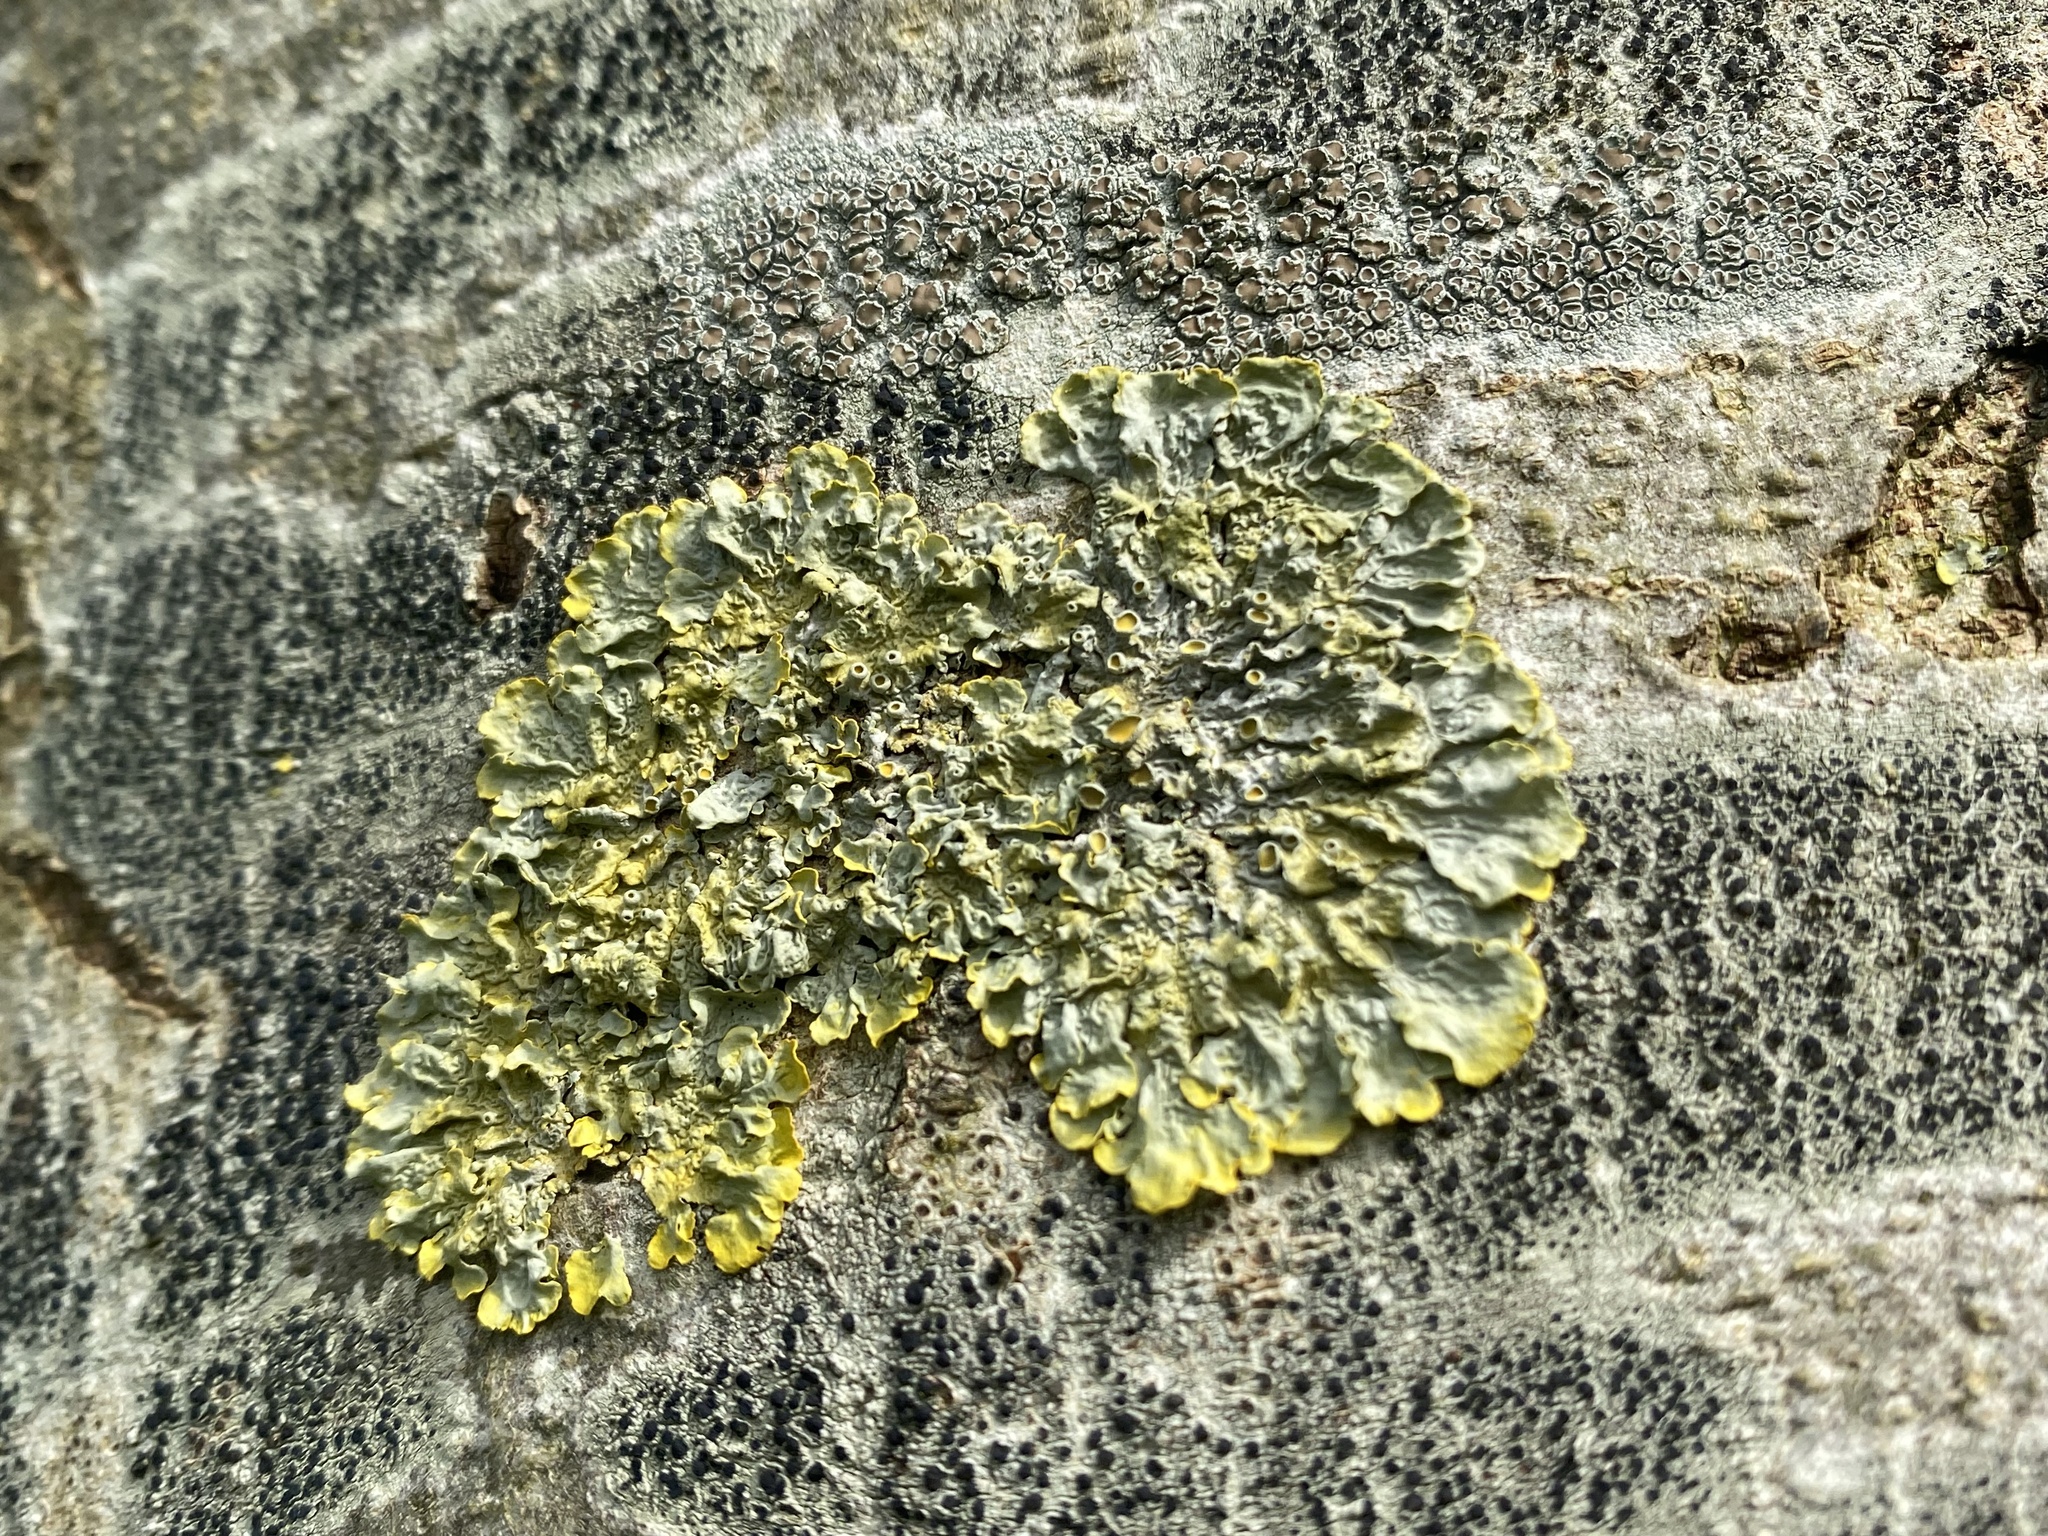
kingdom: Fungi
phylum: Ascomycota
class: Lecanoromycetes
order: Teloschistales
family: Teloschistaceae
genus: Xanthoria
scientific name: Xanthoria parietina
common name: Common orange lichen
